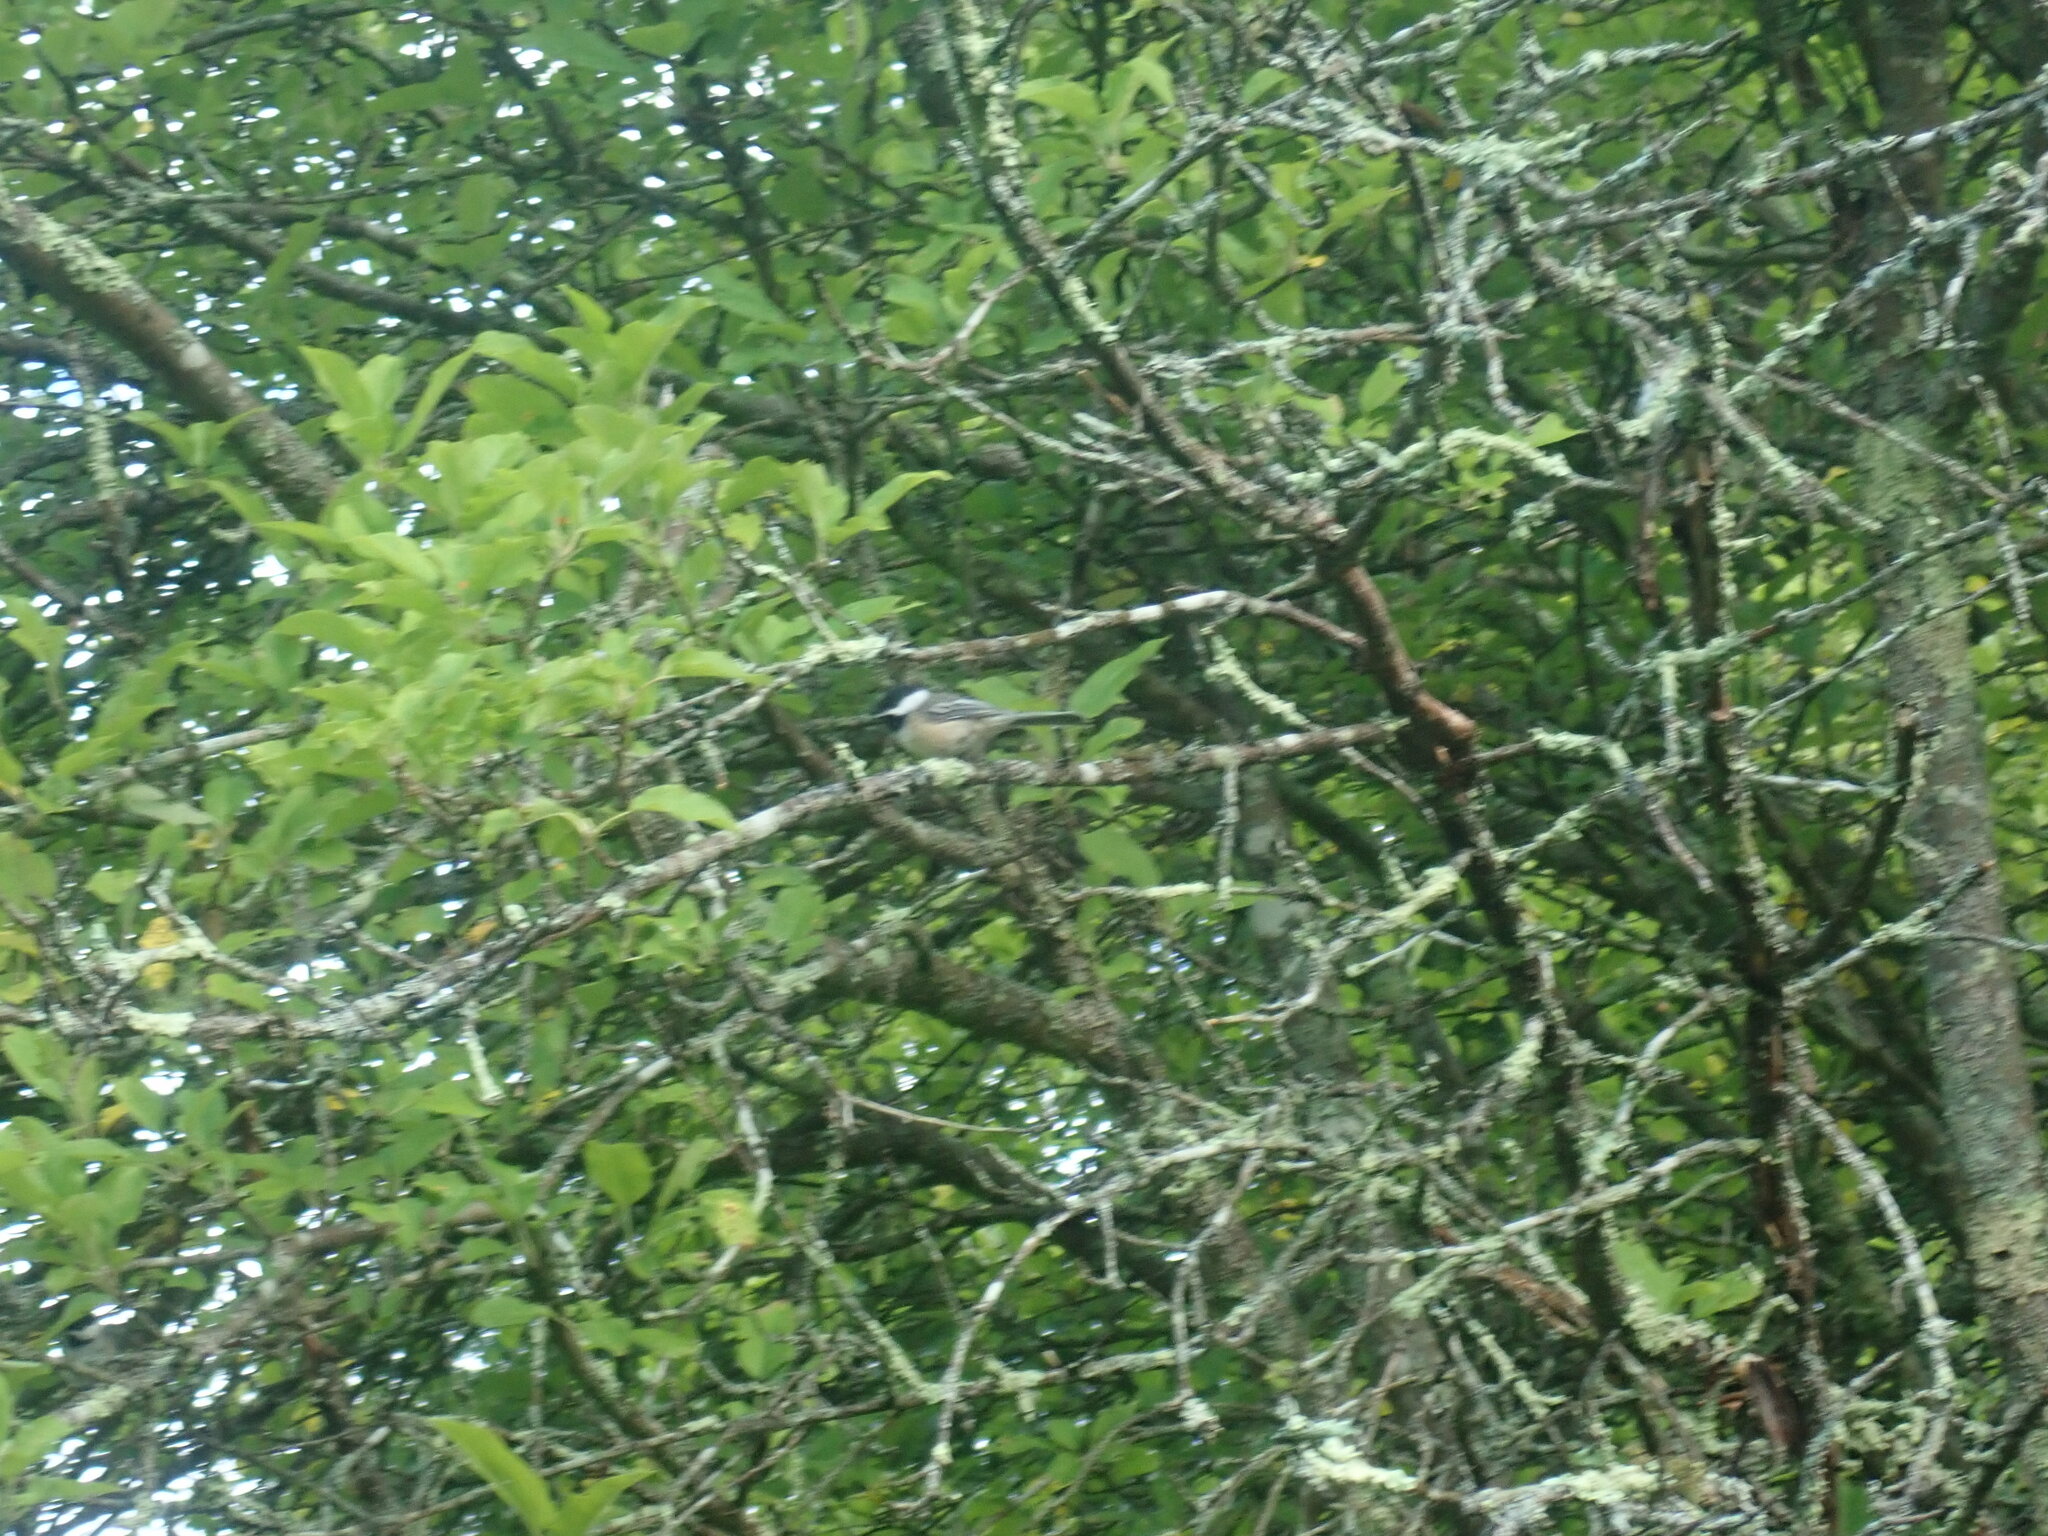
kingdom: Animalia
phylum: Chordata
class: Aves
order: Passeriformes
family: Paridae
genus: Poecile
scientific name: Poecile atricapillus
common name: Black-capped chickadee
